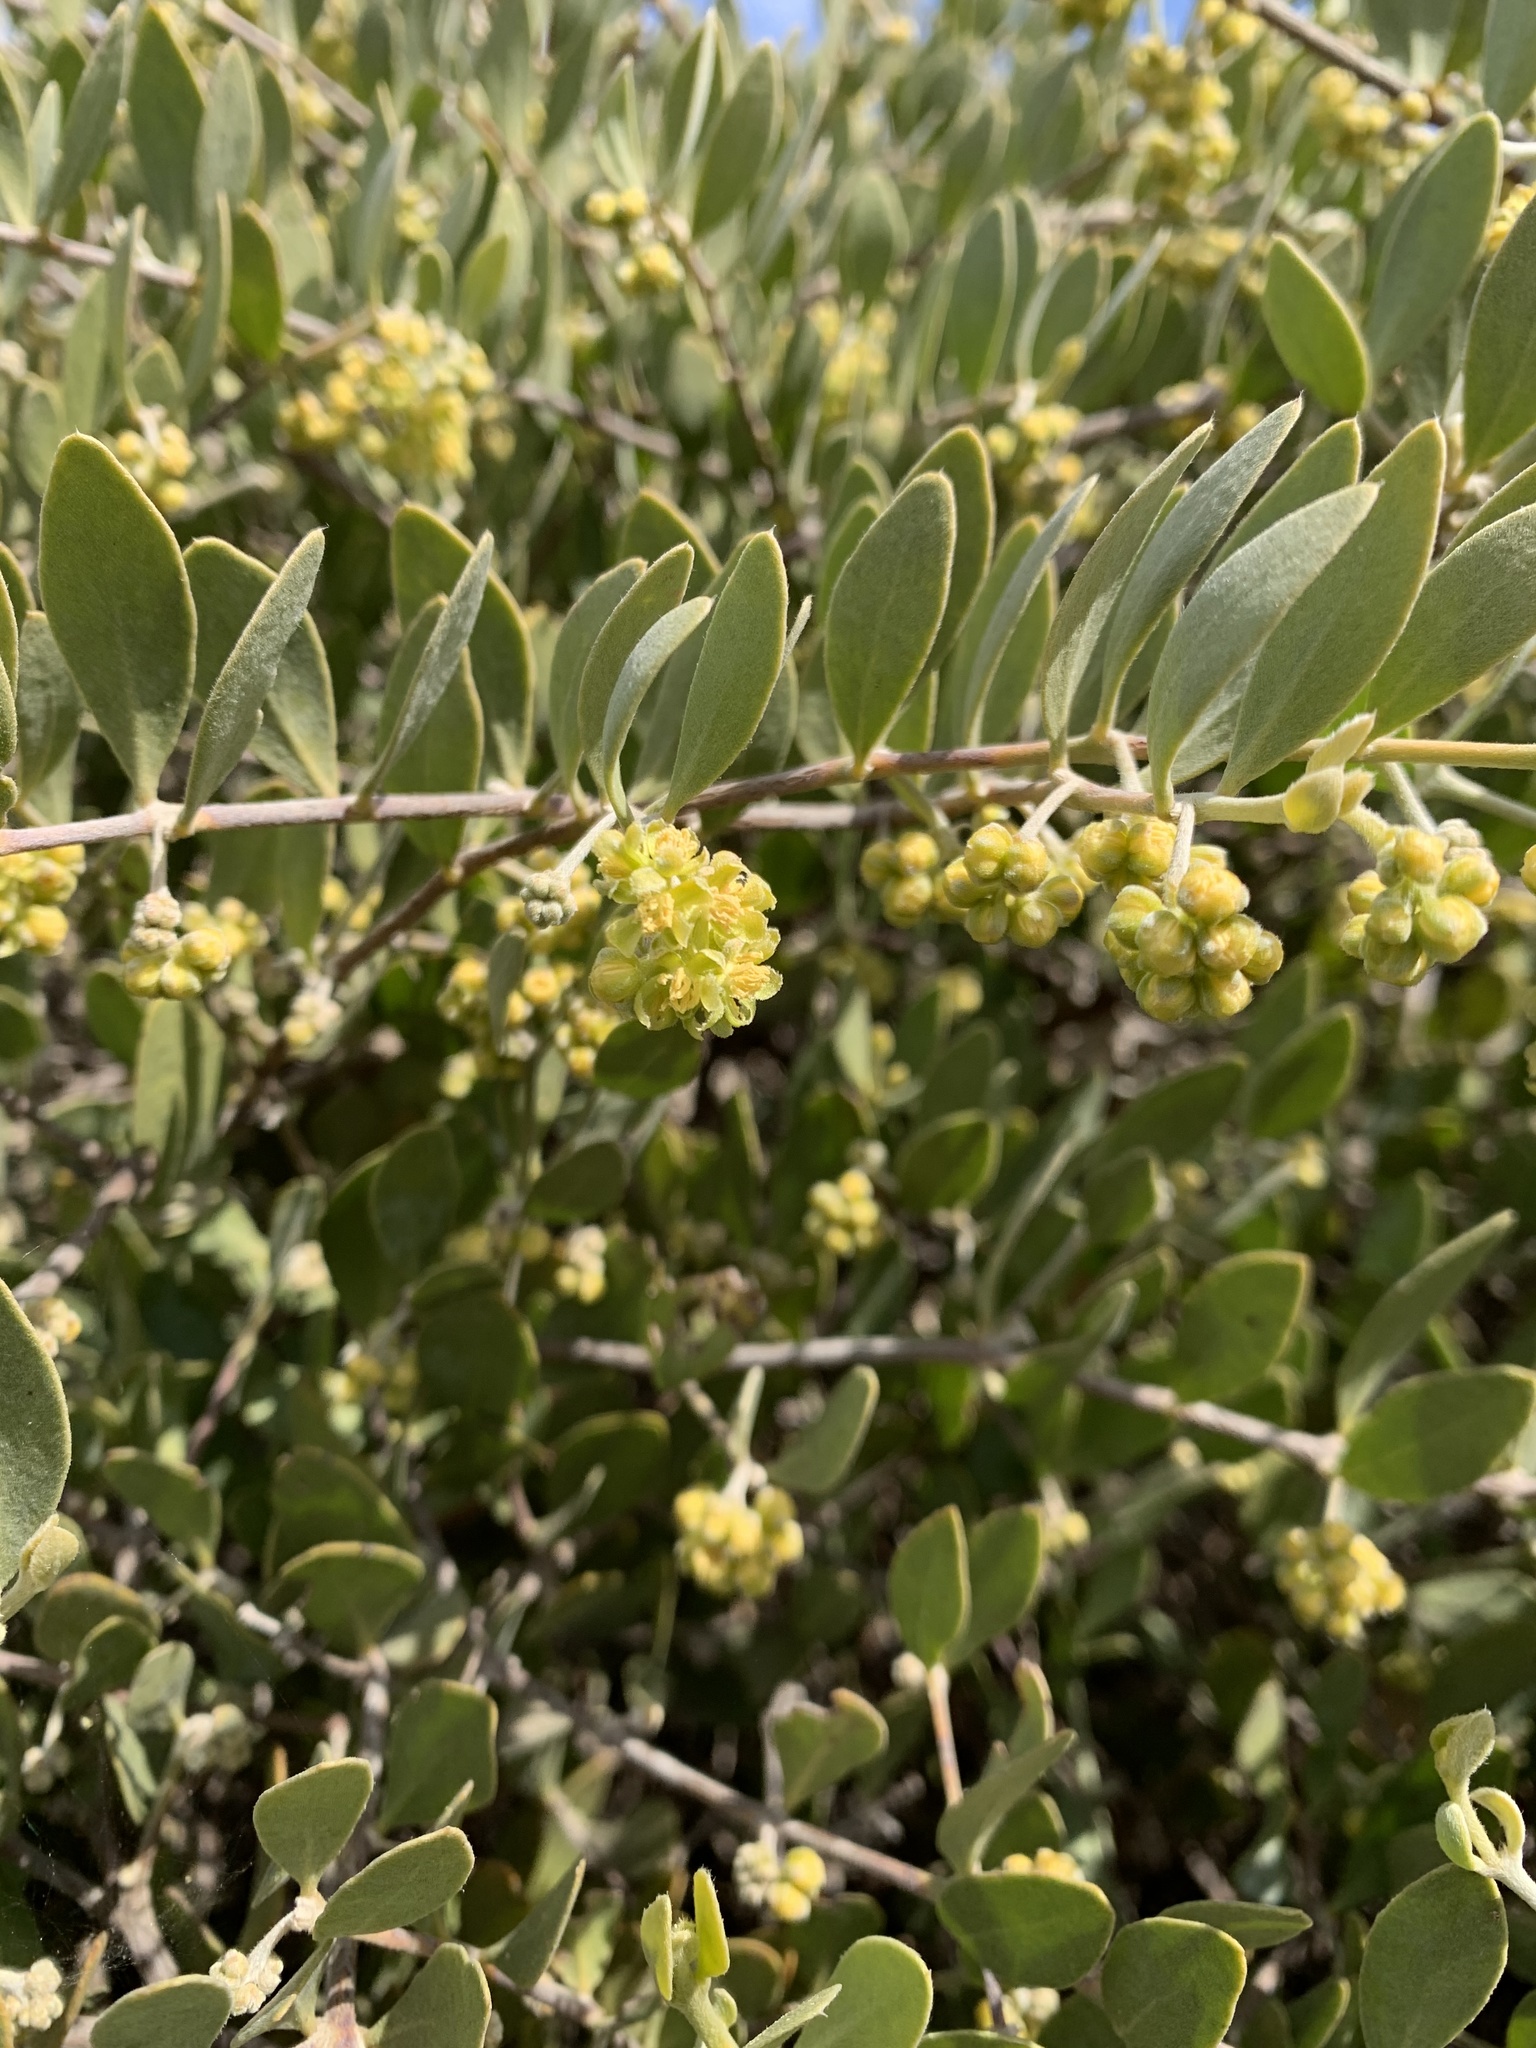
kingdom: Plantae
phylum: Tracheophyta
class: Magnoliopsida
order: Caryophyllales
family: Simmondsiaceae
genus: Simmondsia
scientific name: Simmondsia chinensis
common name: Jojoba
